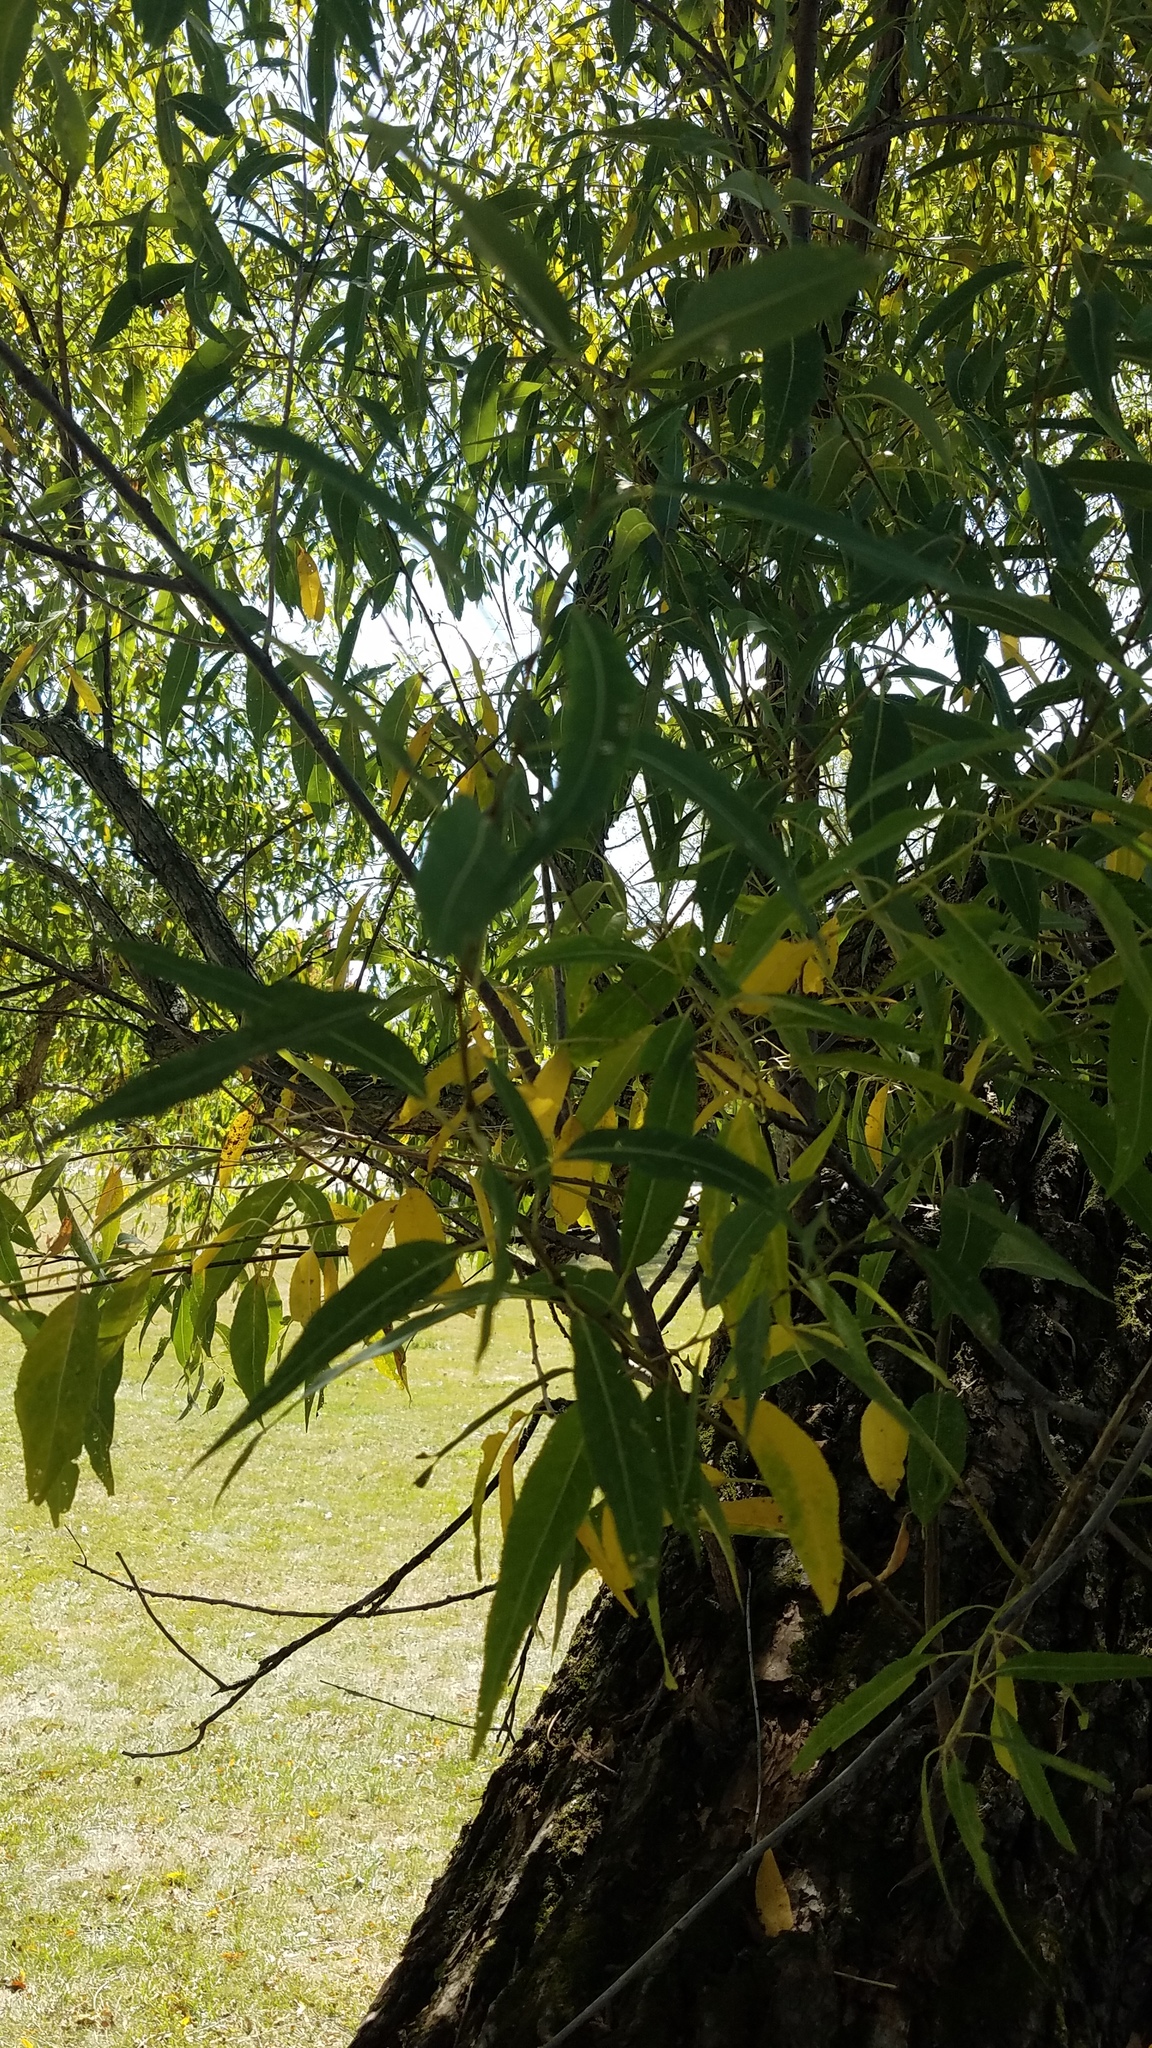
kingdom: Plantae
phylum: Tracheophyta
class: Magnoliopsida
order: Malpighiales
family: Salicaceae
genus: Salix
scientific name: Salix nigra
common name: Black willow
